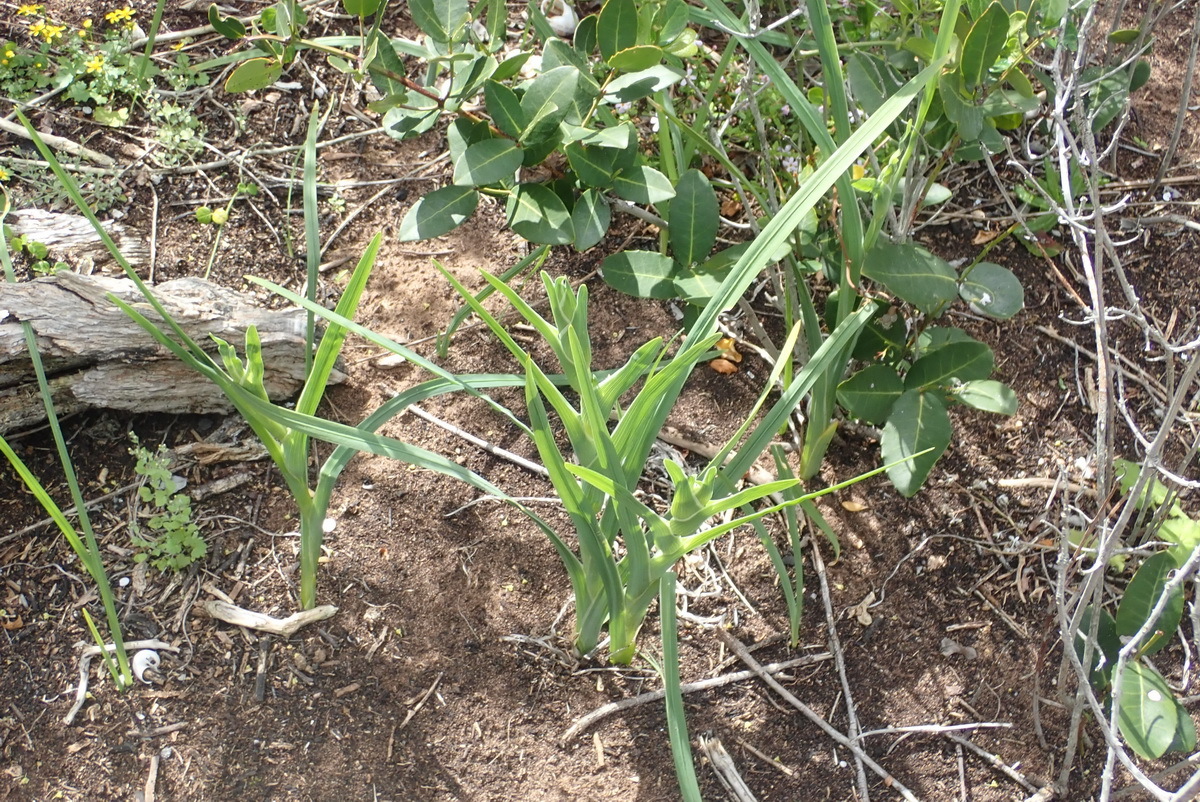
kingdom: Plantae
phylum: Tracheophyta
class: Liliopsida
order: Asparagales
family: Iridaceae
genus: Ferraria
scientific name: Ferraria crispa
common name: Black-flag
